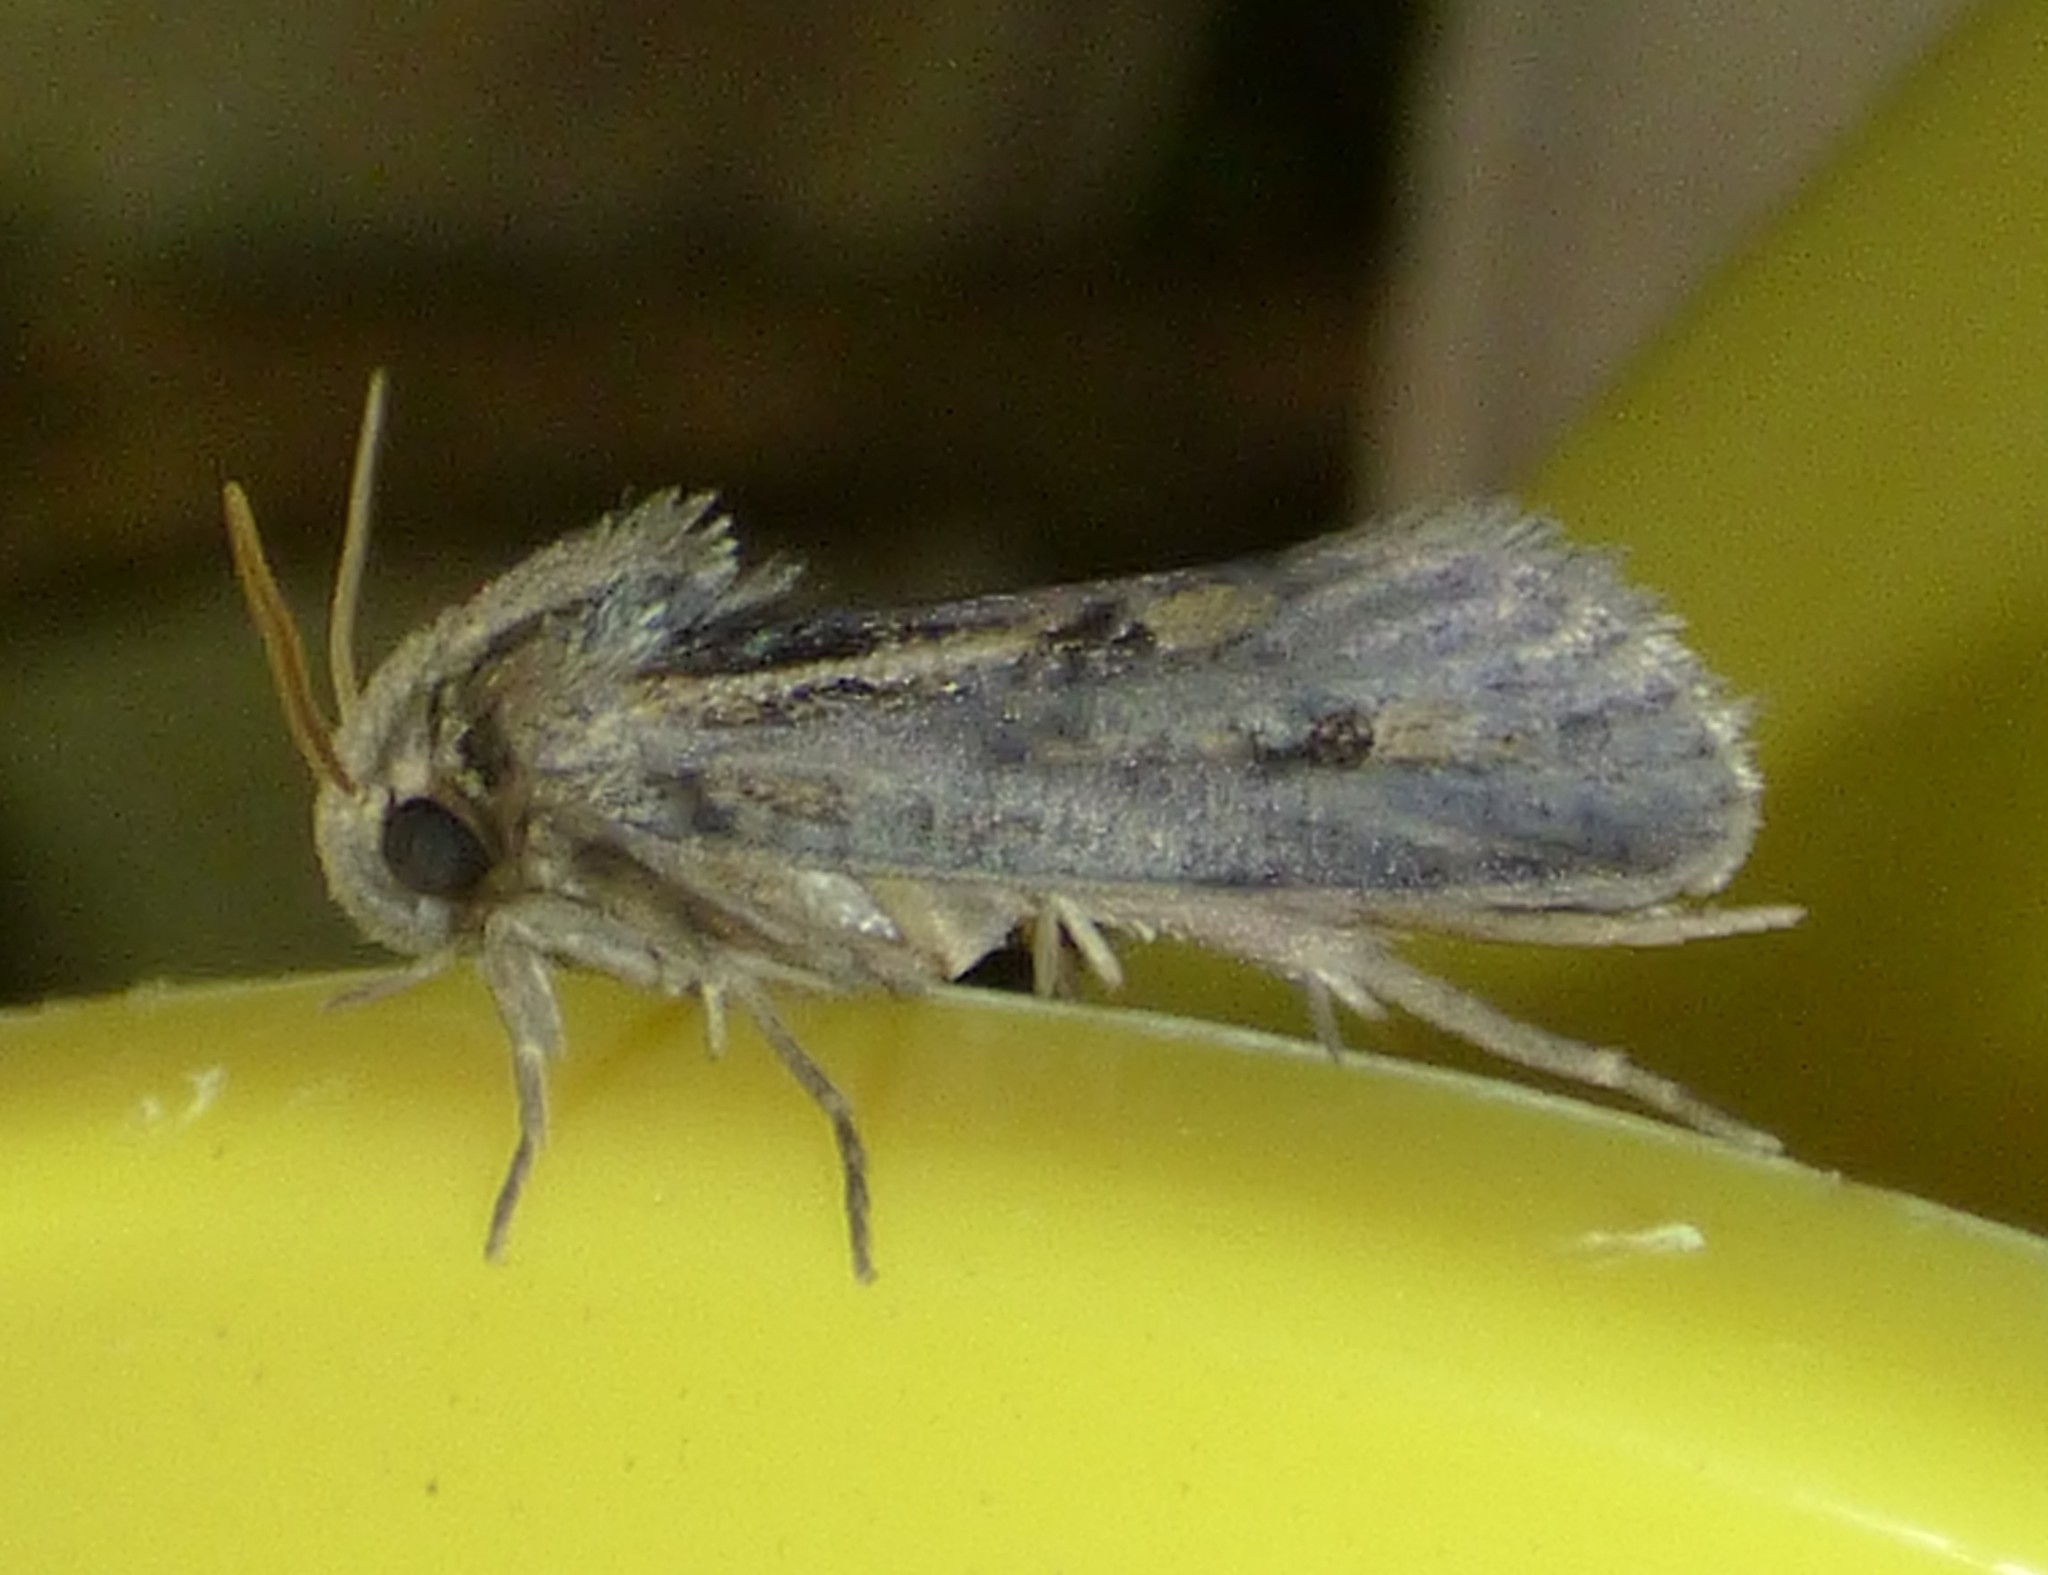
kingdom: Animalia
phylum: Arthropoda
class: Insecta
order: Lepidoptera
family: Tineidae
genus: Acrolophus
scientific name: Acrolophus popeanella
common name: Clemens' grass tubeworm moth
